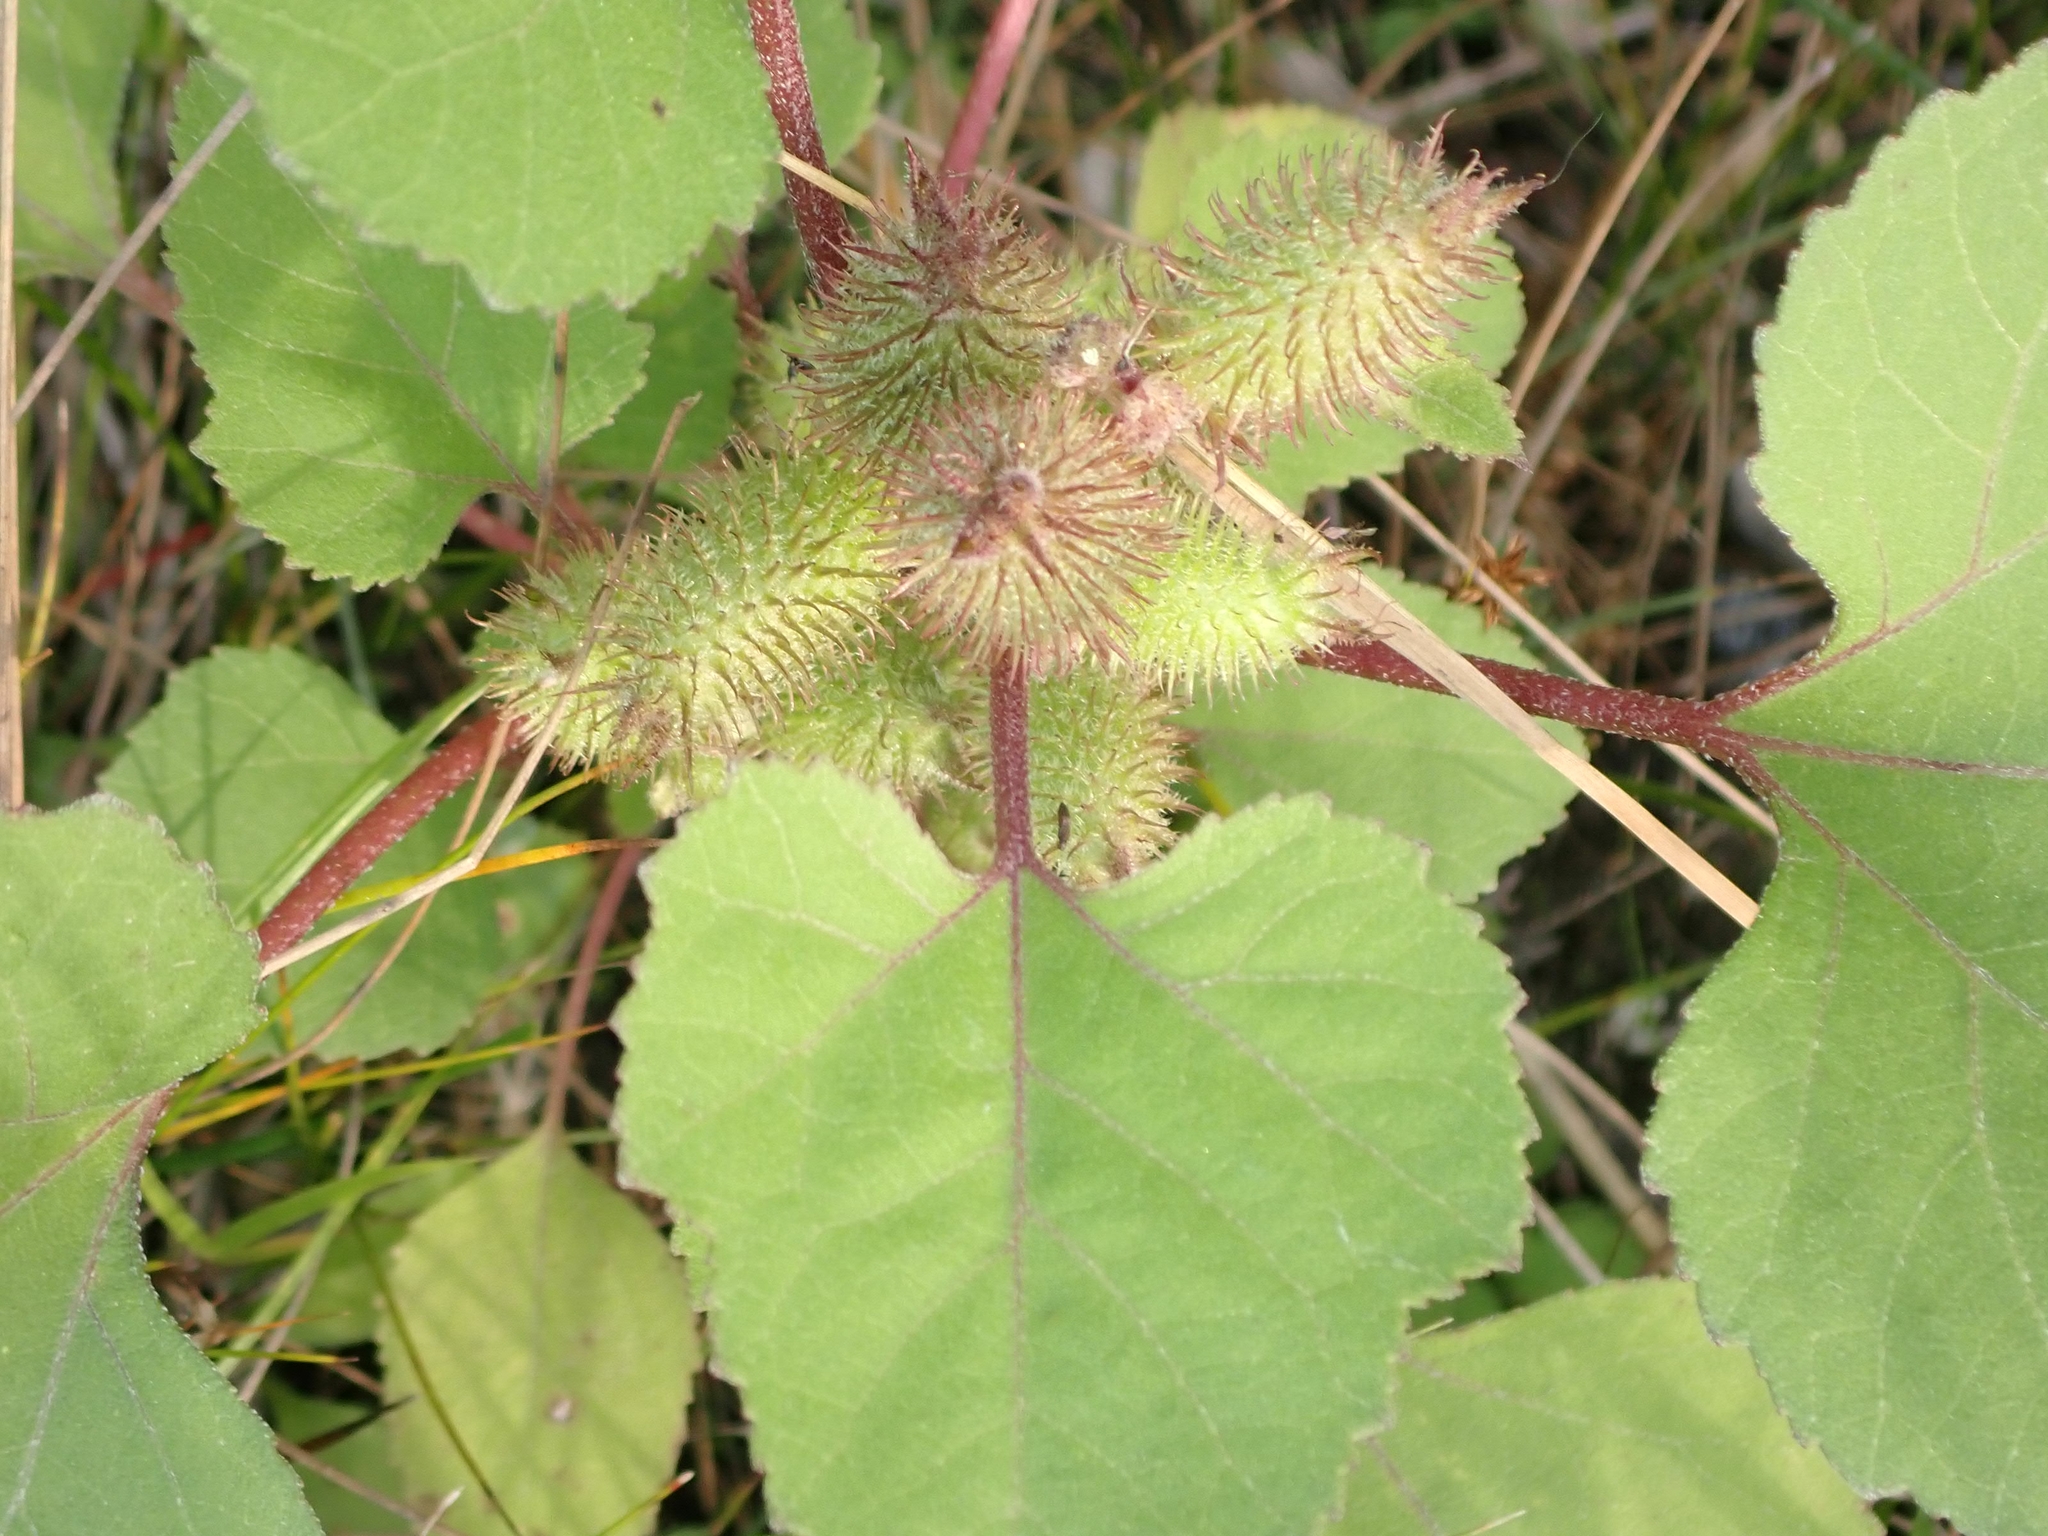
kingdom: Plantae
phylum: Tracheophyta
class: Magnoliopsida
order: Asterales
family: Asteraceae
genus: Xanthium
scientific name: Xanthium strumarium
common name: Rough cocklebur
